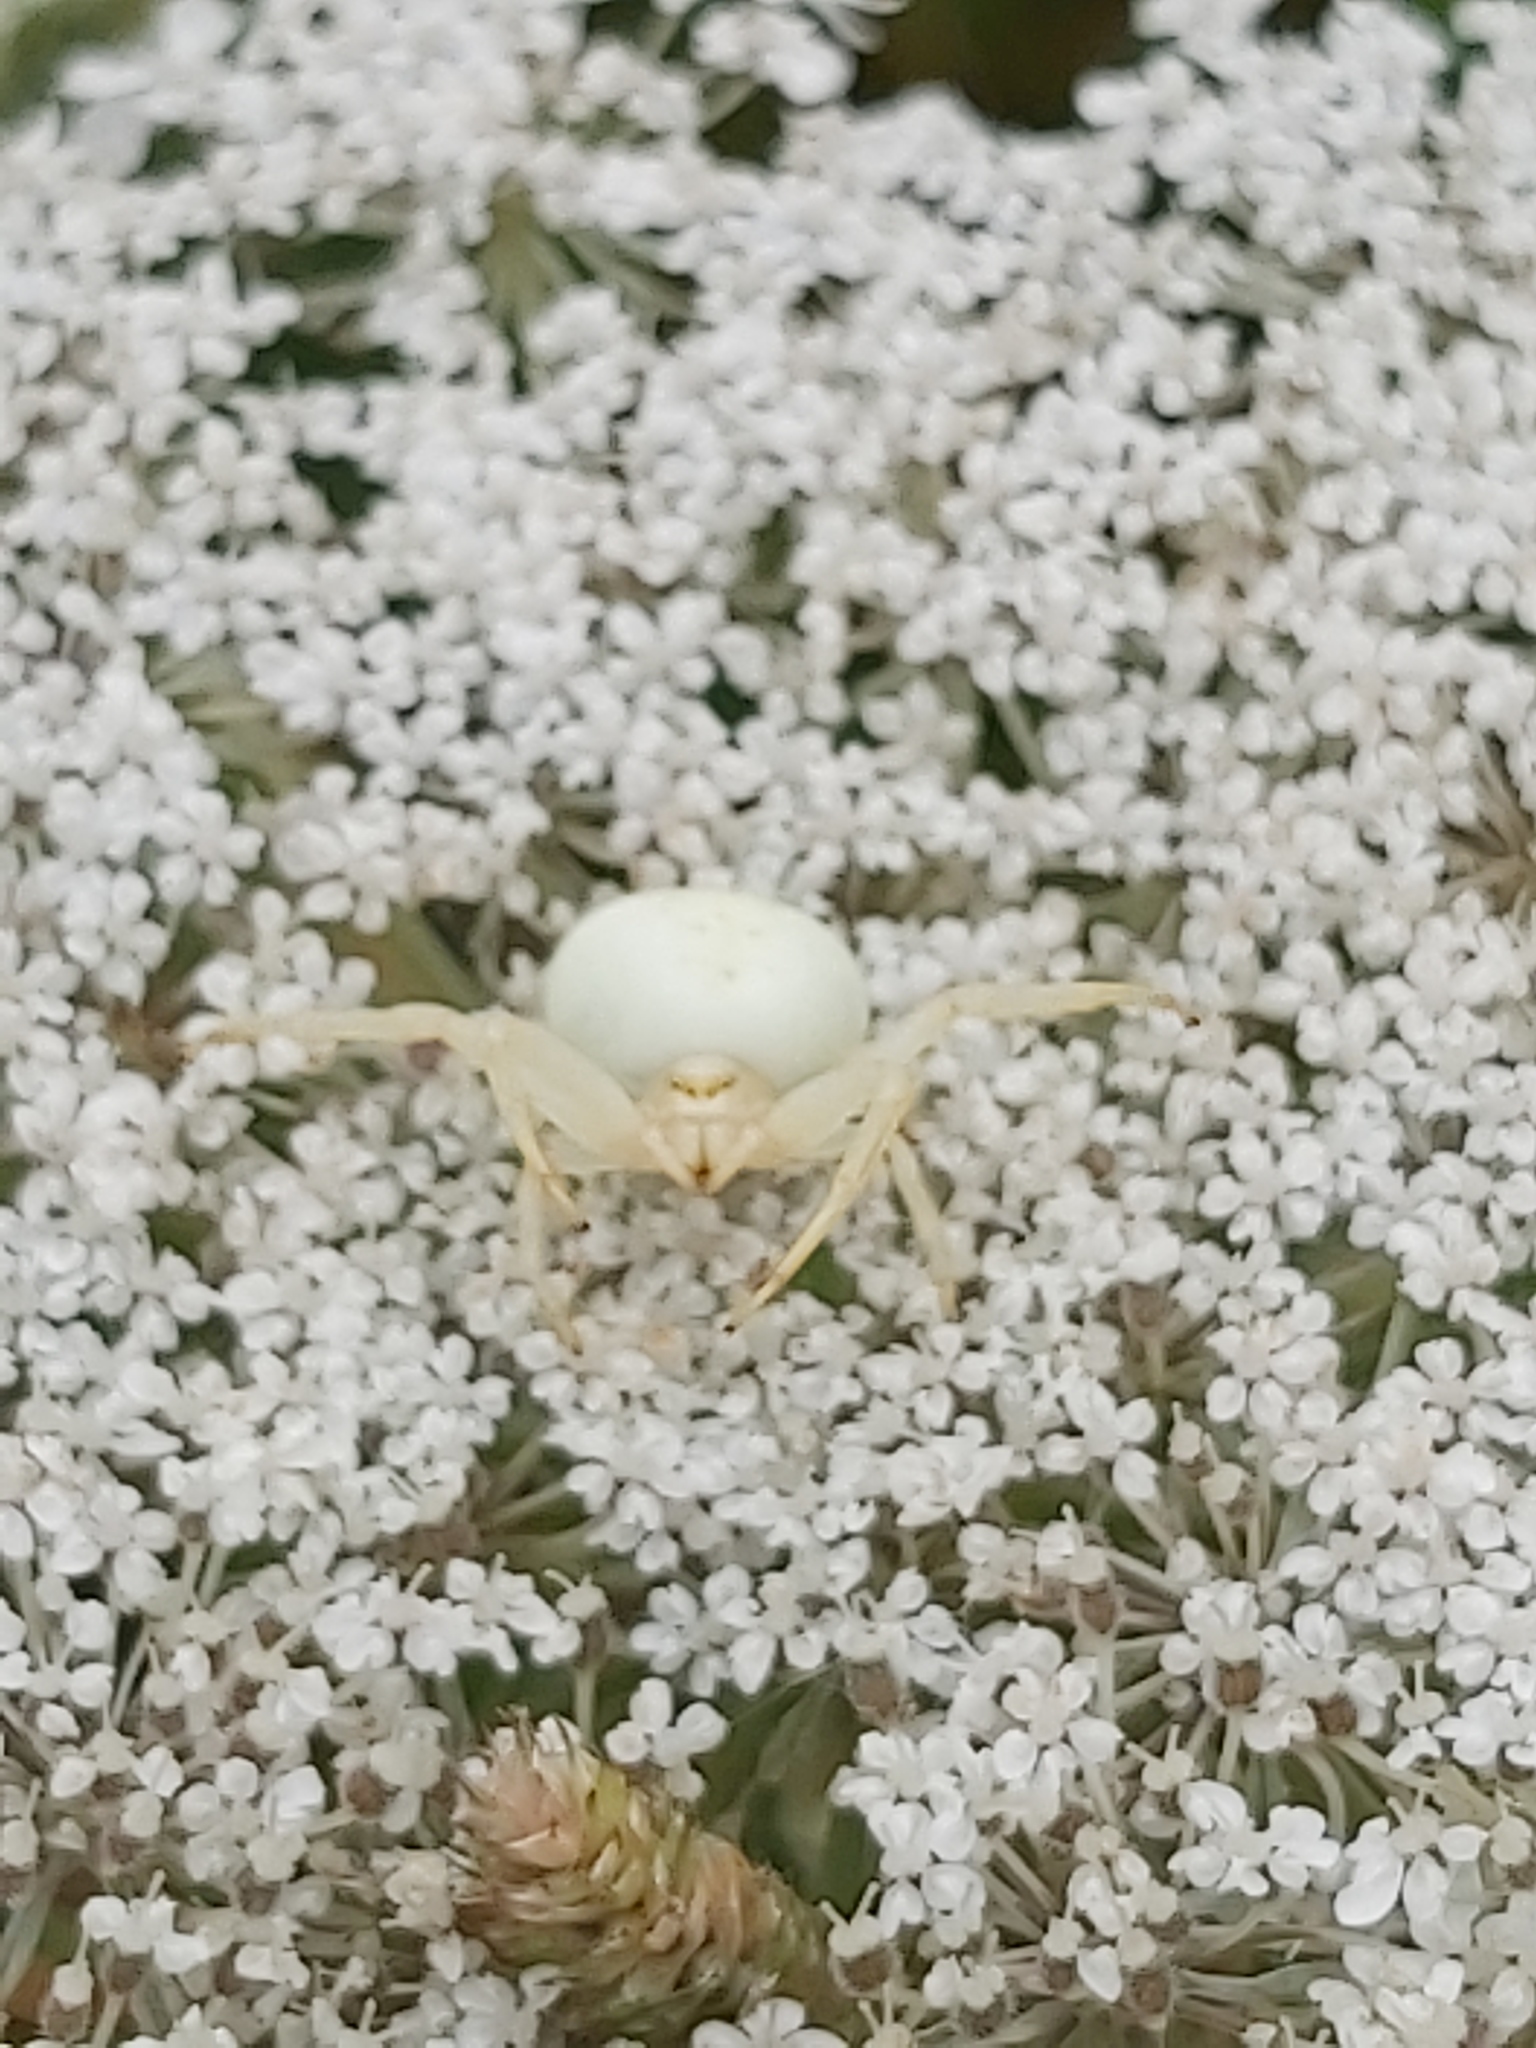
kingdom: Animalia
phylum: Arthropoda
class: Arachnida
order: Araneae
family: Thomisidae
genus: Misumena
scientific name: Misumena vatia
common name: Goldenrod crab spider
